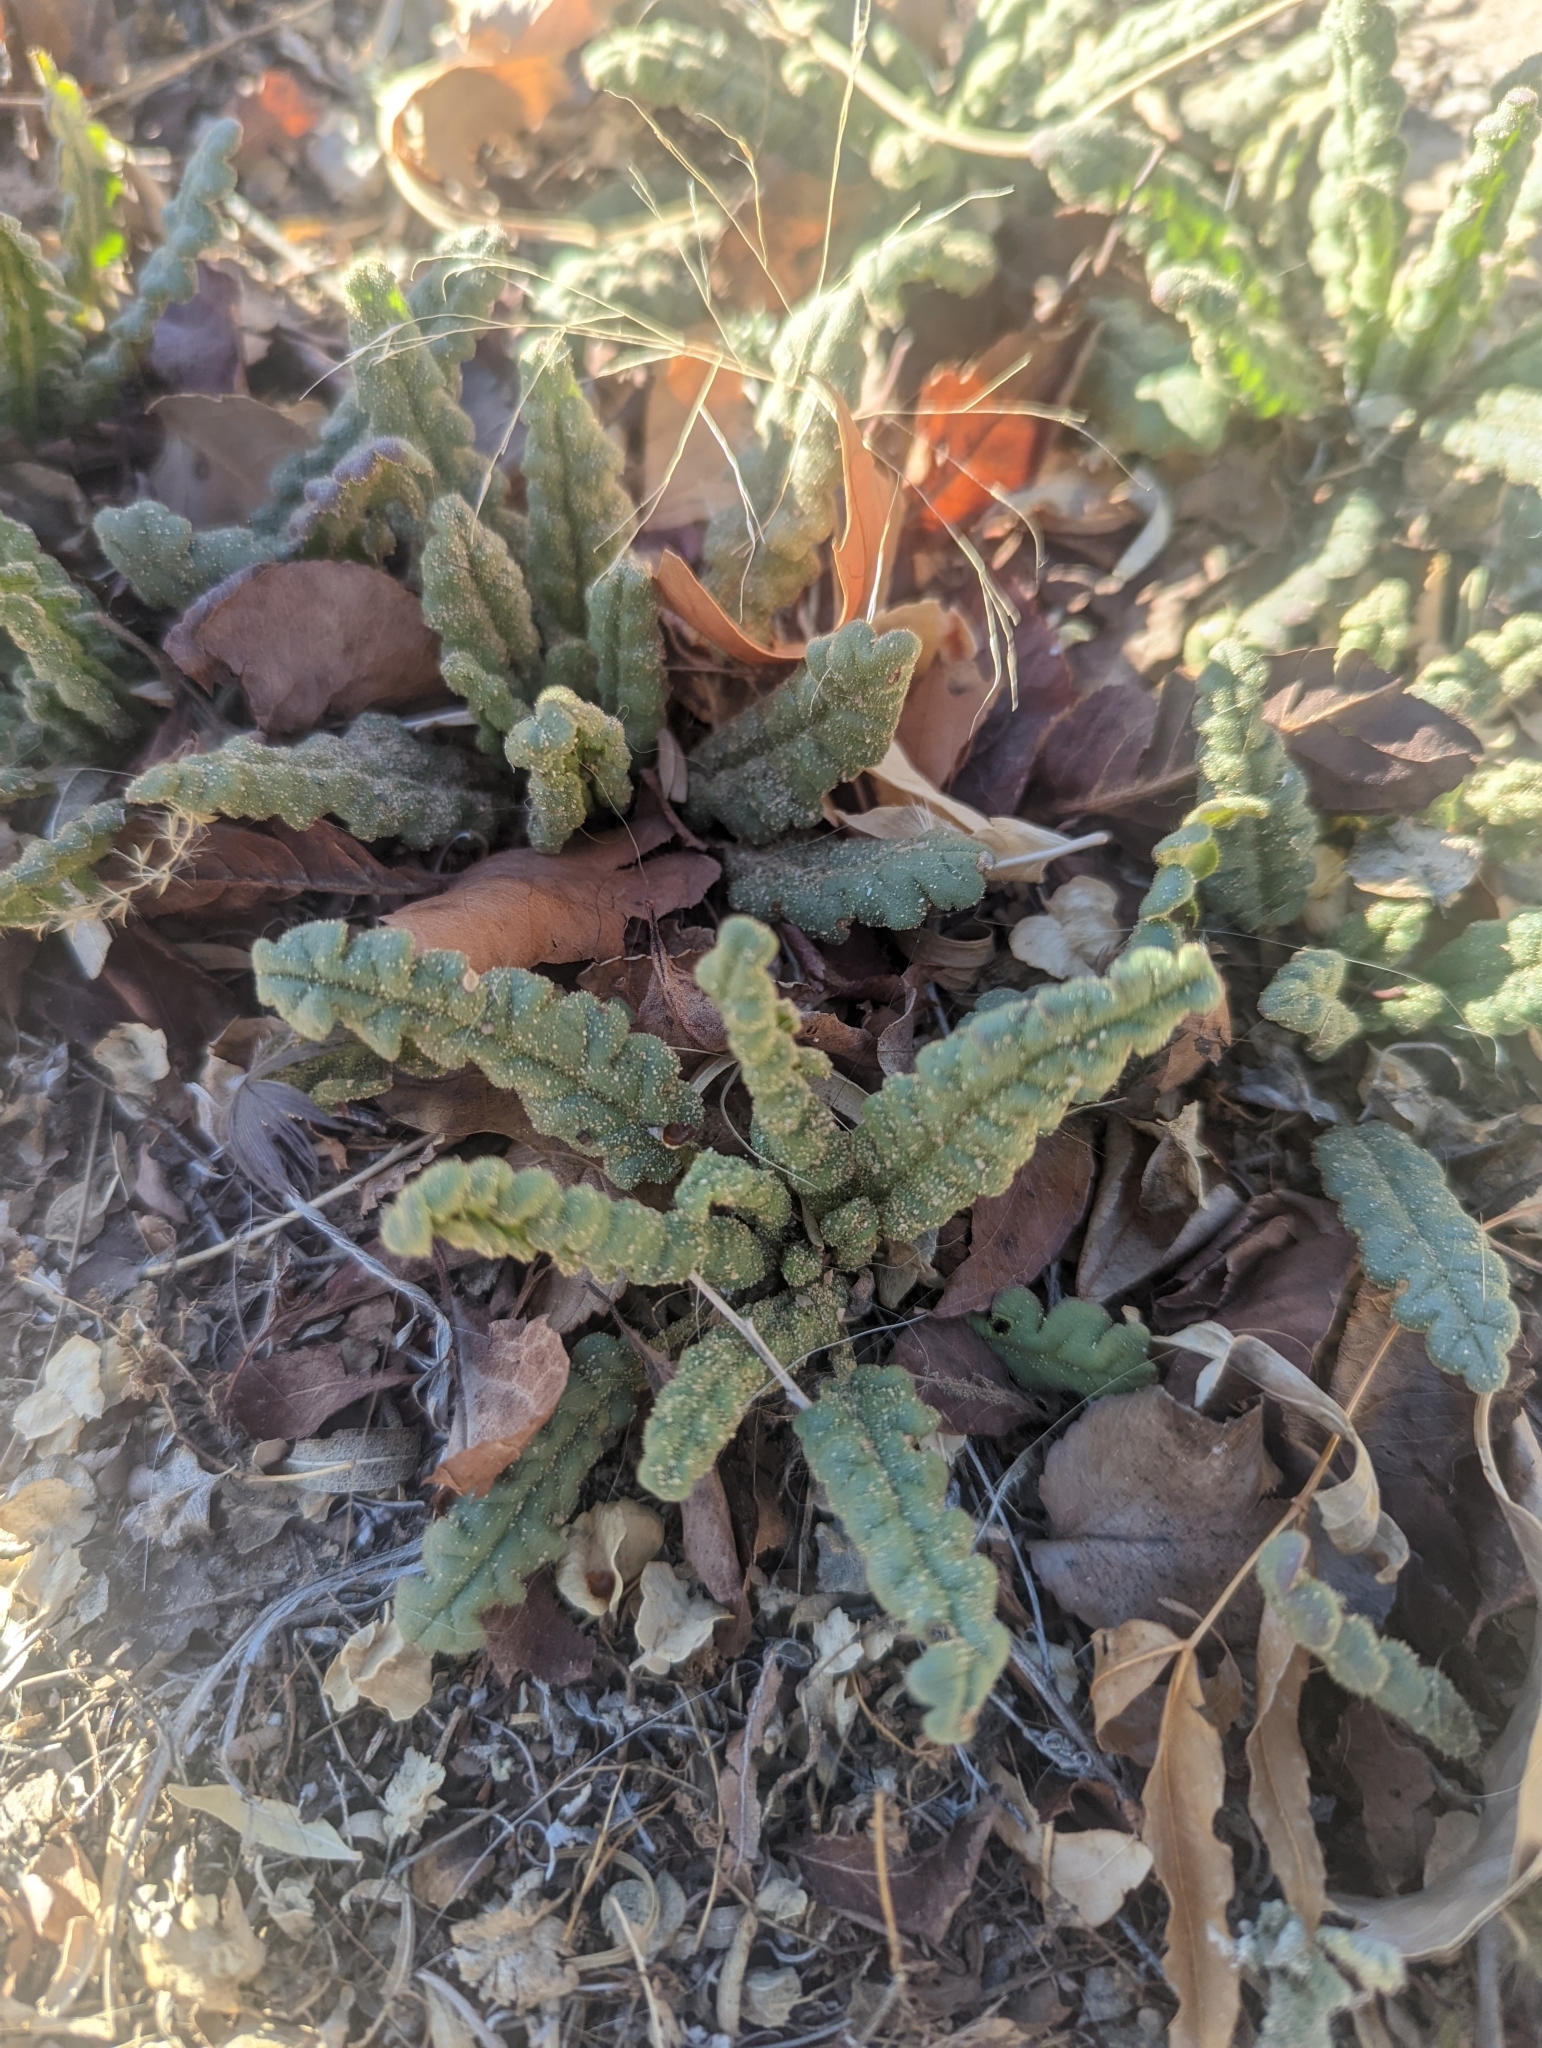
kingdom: Plantae
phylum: Tracheophyta
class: Magnoliopsida
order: Boraginales
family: Hydrophyllaceae
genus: Phacelia
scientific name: Phacelia integrifolia
